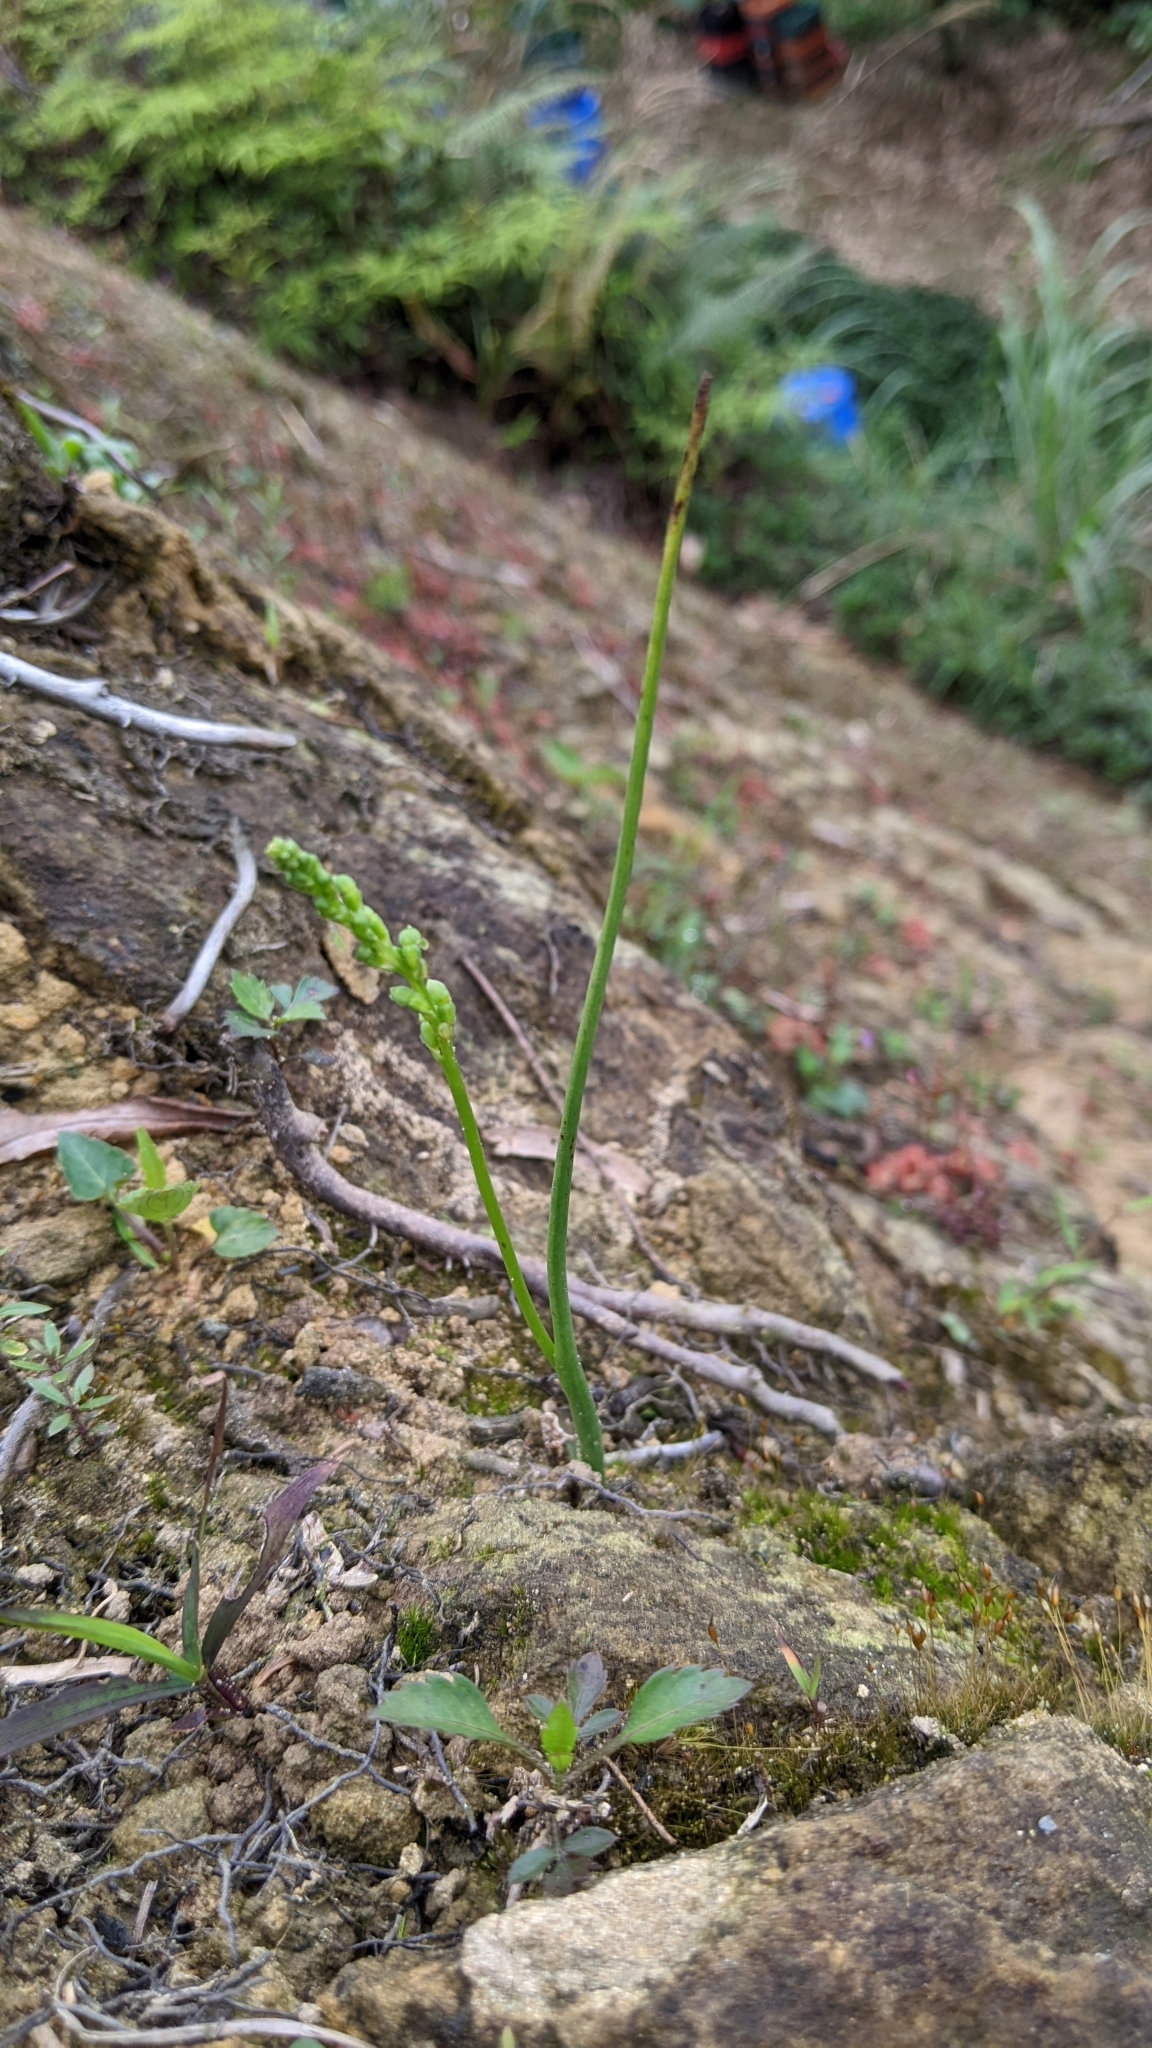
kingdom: Plantae
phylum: Tracheophyta
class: Liliopsida
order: Asparagales
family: Orchidaceae
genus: Microtis
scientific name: Microtis unifolia
